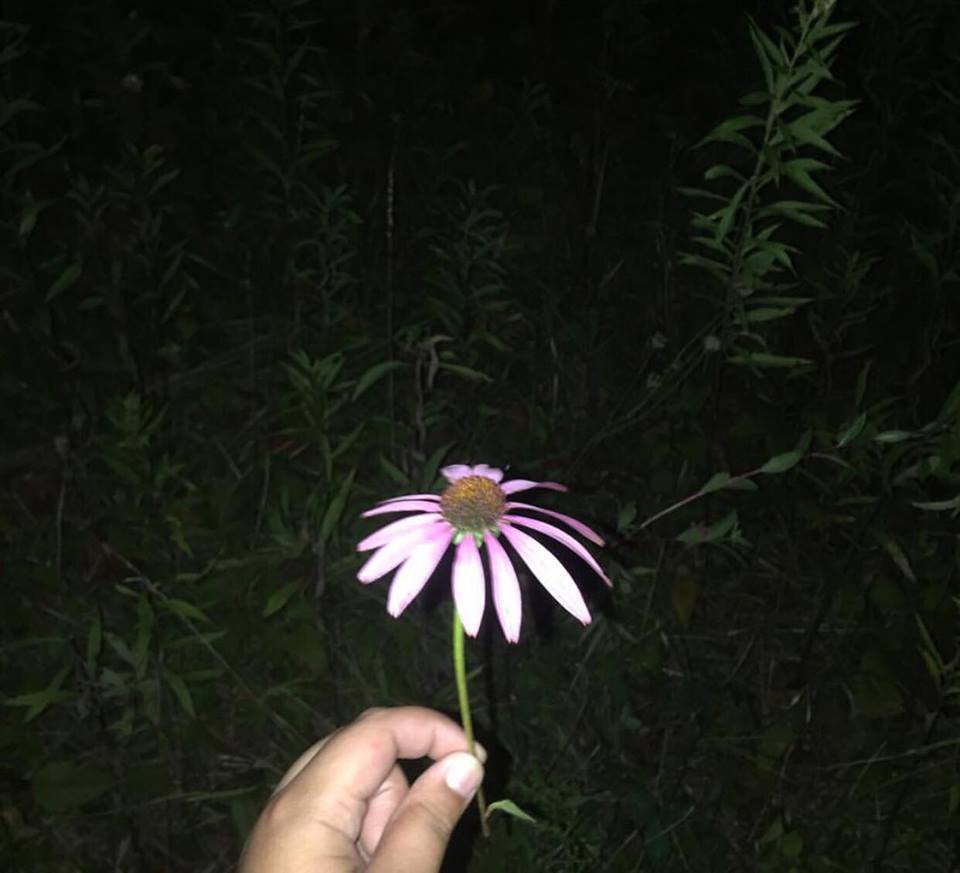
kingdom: Plantae
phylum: Tracheophyta
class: Magnoliopsida
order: Asterales
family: Asteraceae
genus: Echinacea
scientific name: Echinacea purpurea
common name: Broad-leaved purple coneflower
